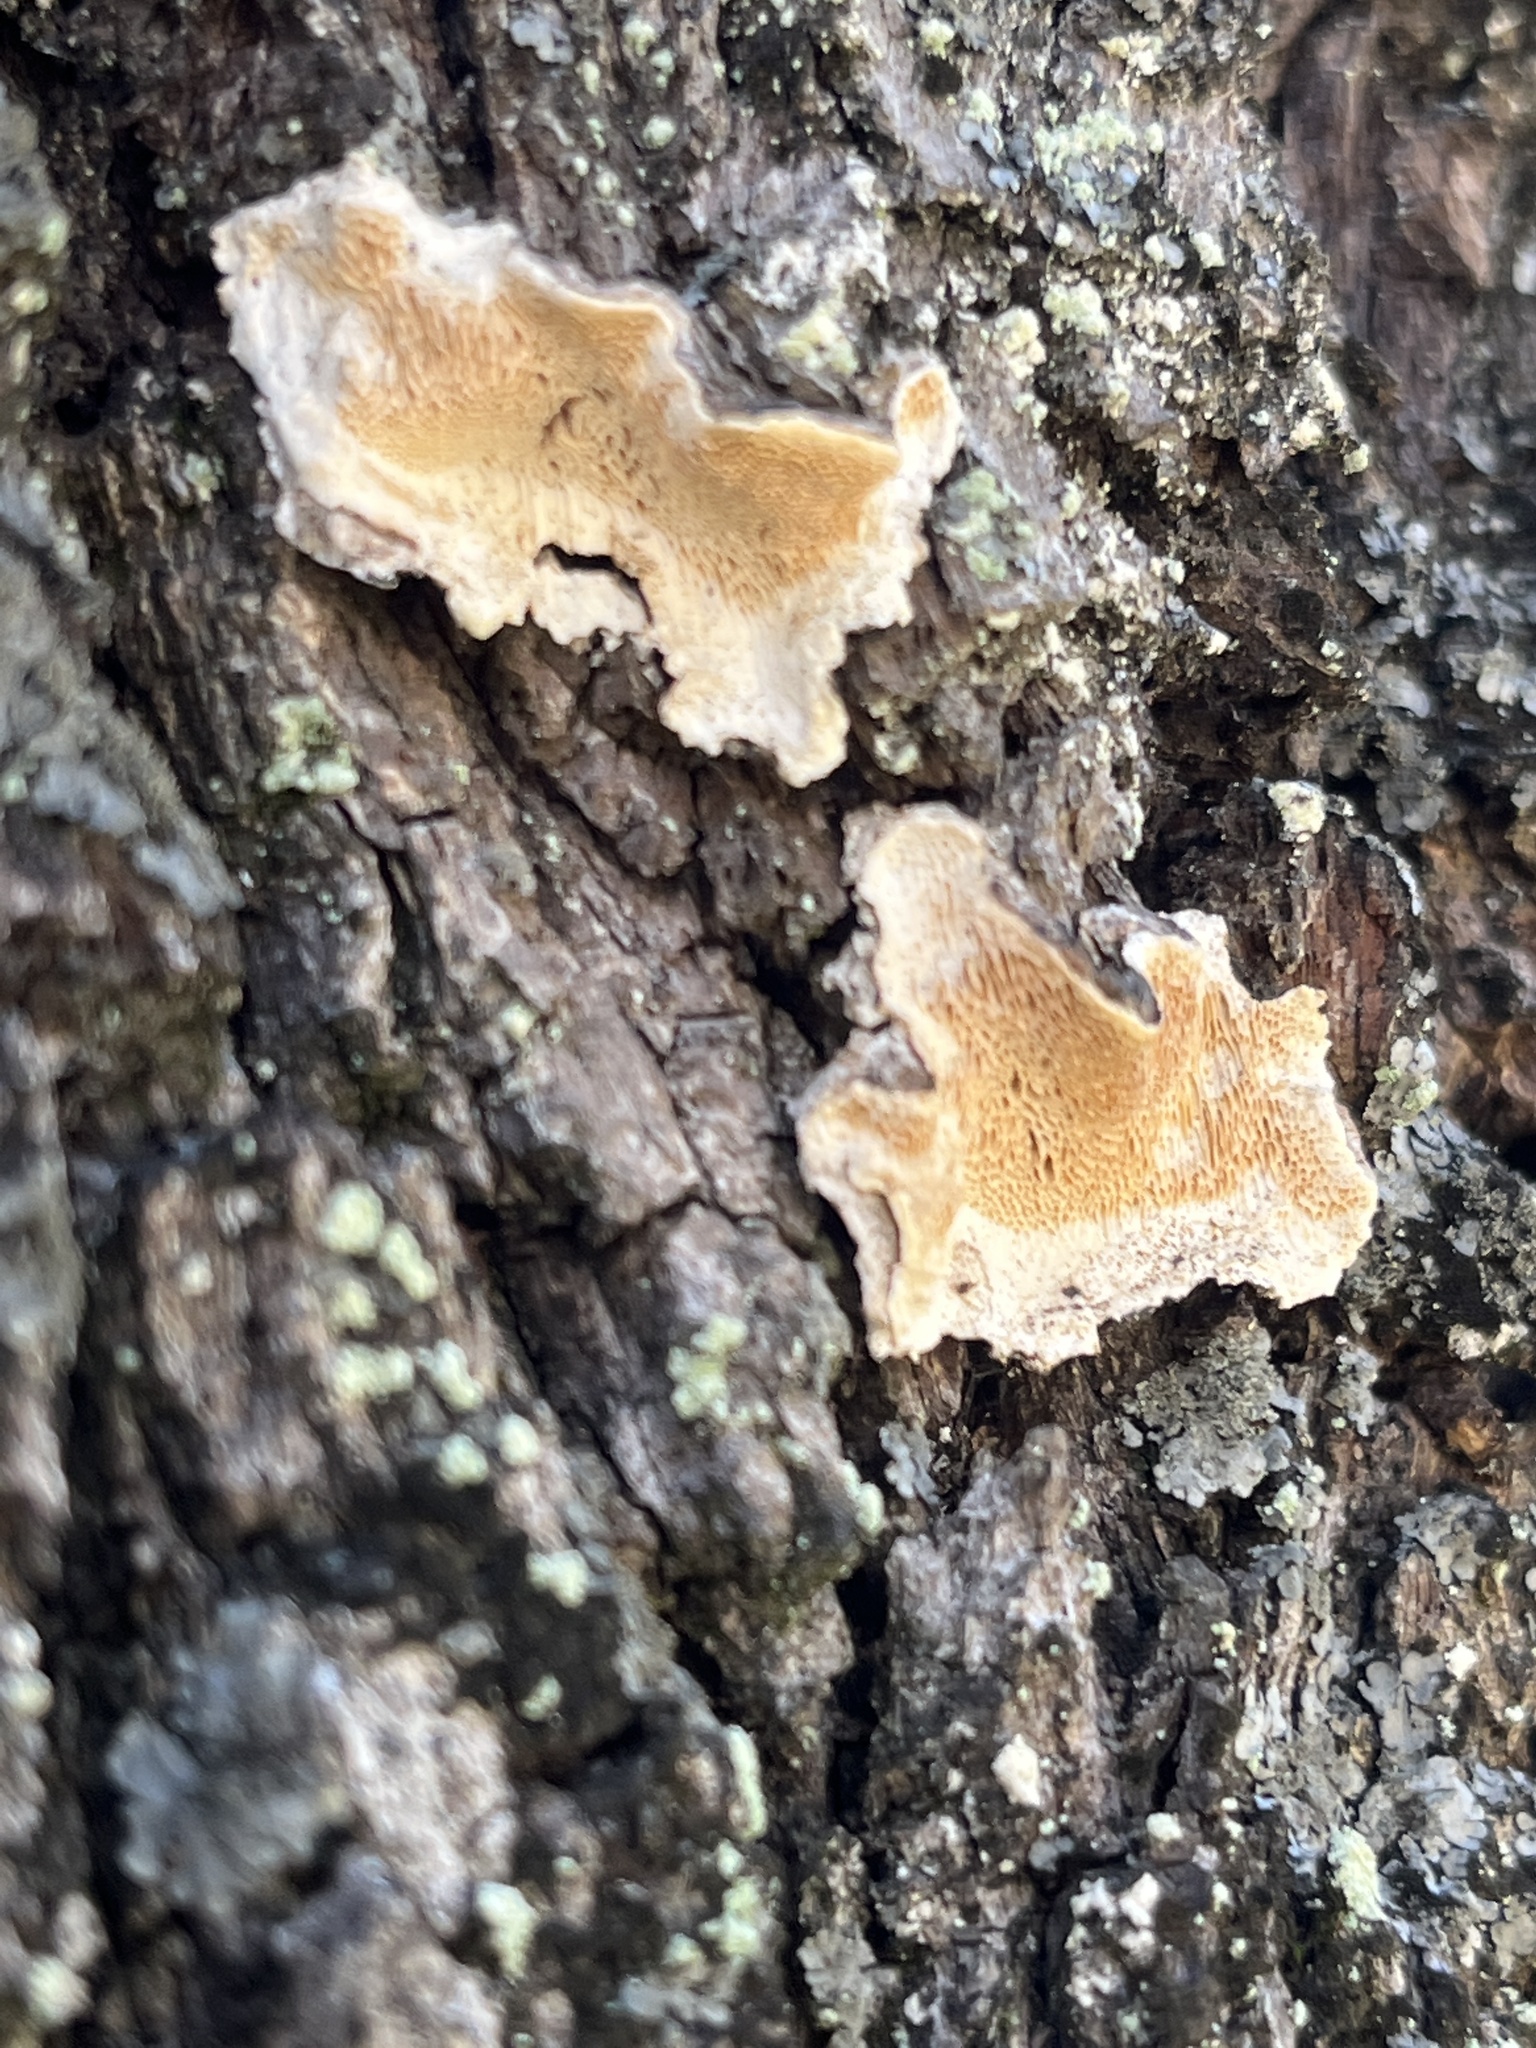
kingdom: Fungi
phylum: Basidiomycota
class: Agaricomycetes
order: Polyporales
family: Steccherinaceae
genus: Steccherinum
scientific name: Steccherinum ochraceum
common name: Ochre spreading tooth
